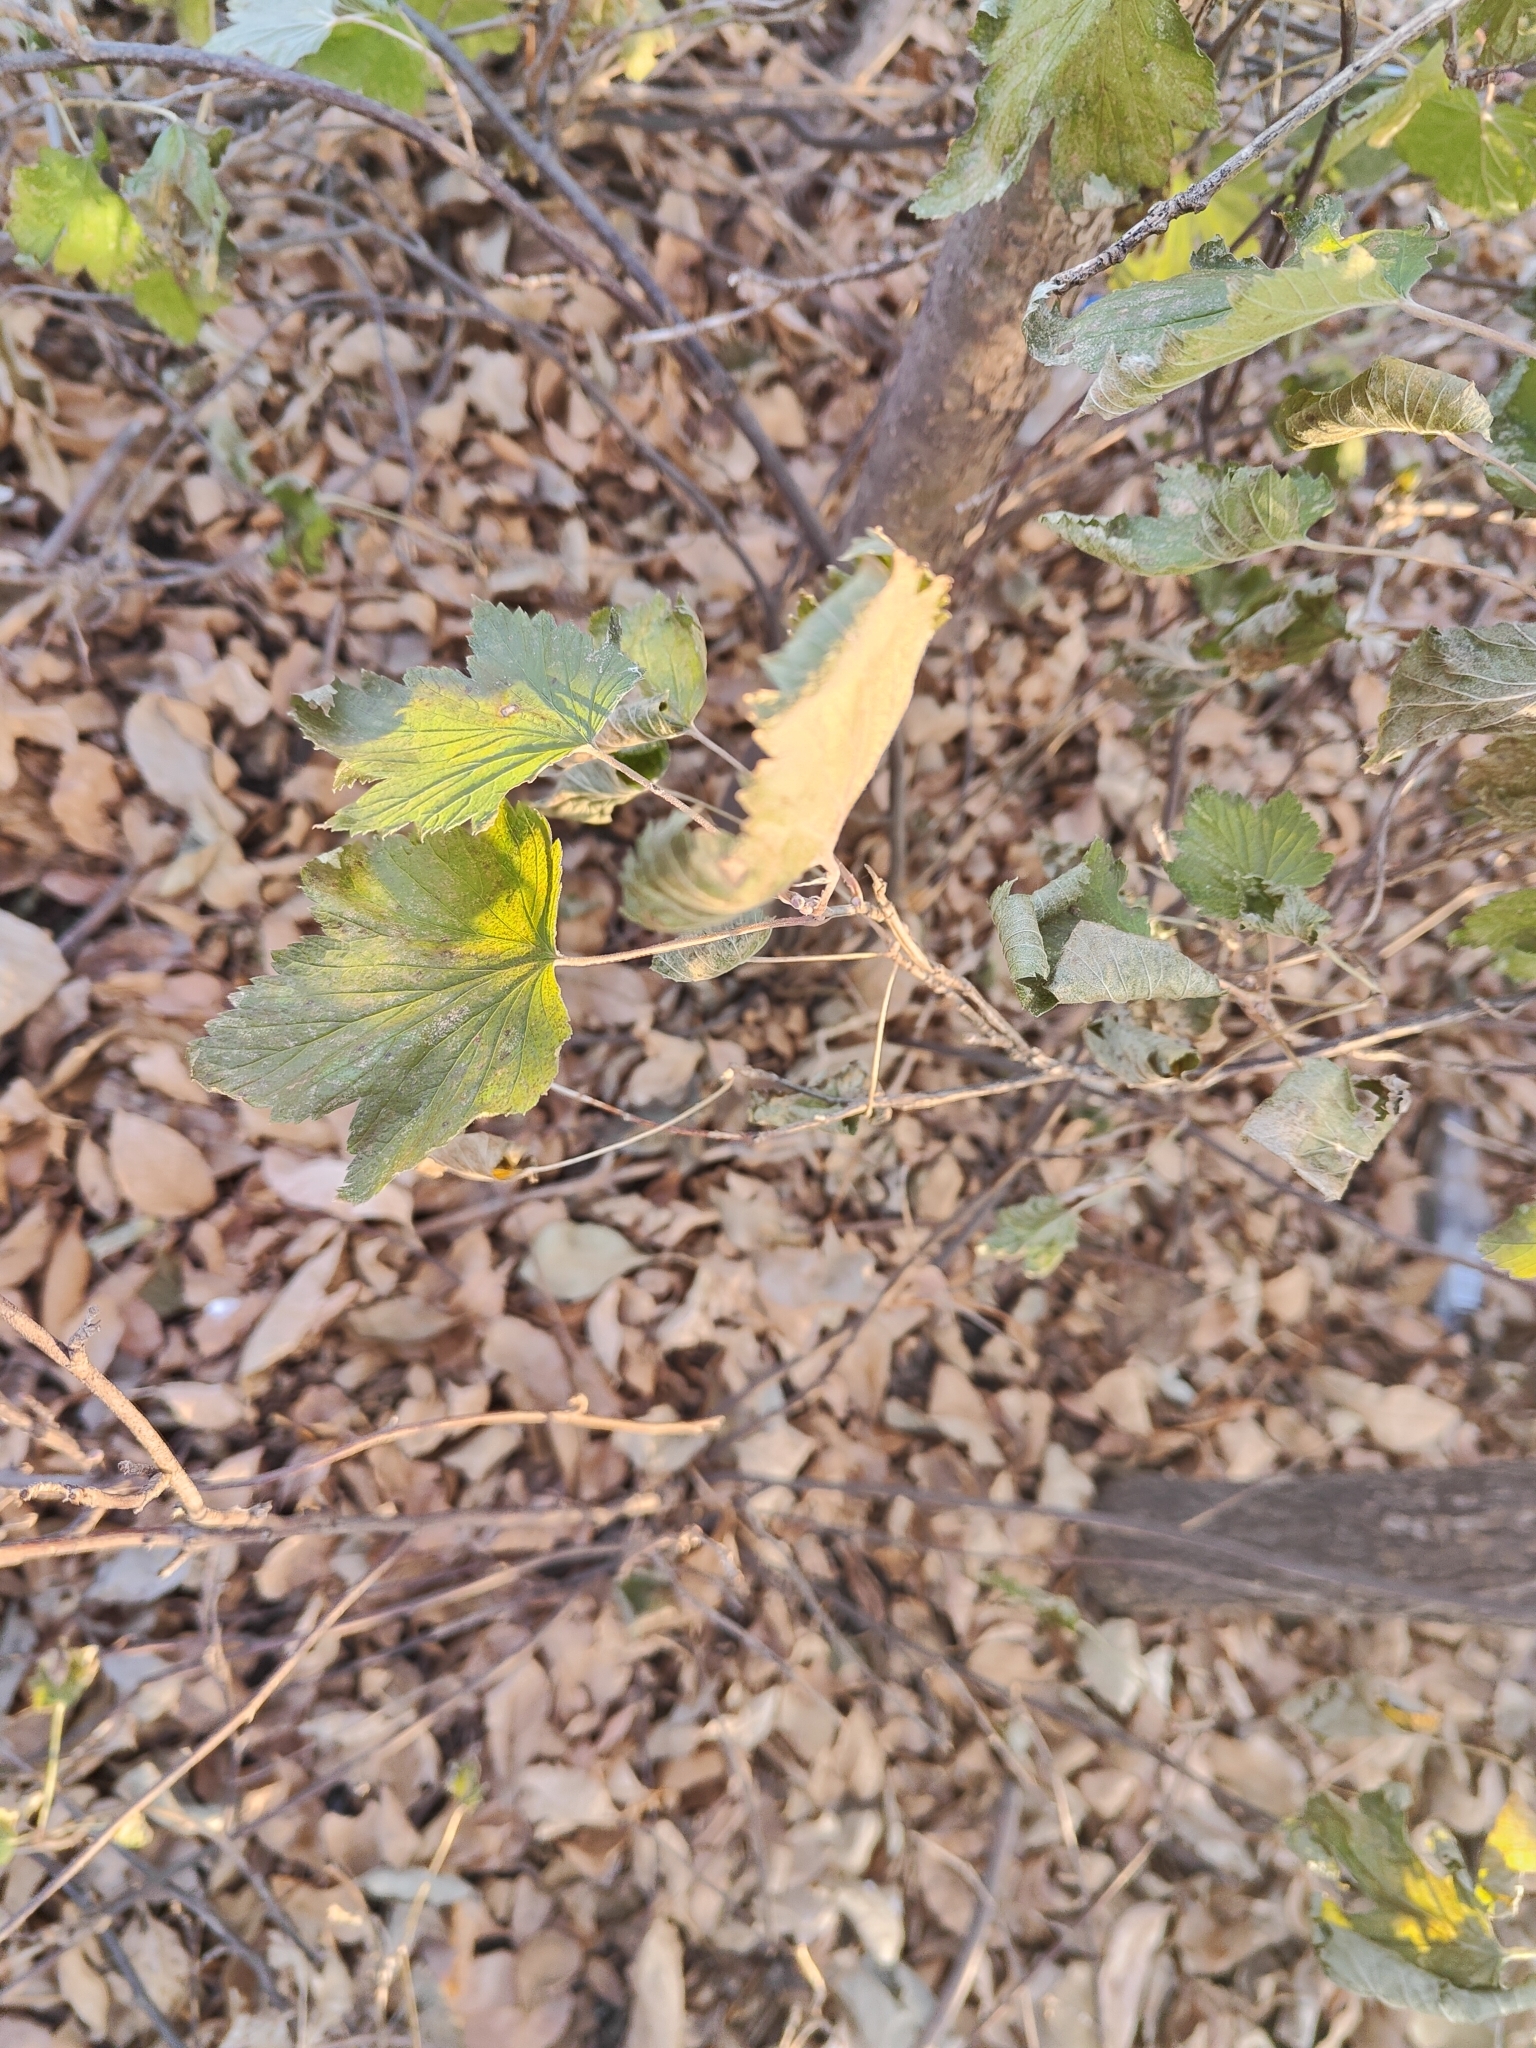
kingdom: Plantae
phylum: Tracheophyta
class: Magnoliopsida
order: Saxifragales
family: Grossulariaceae
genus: Ribes
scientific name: Ribes americanum
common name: American black currant
